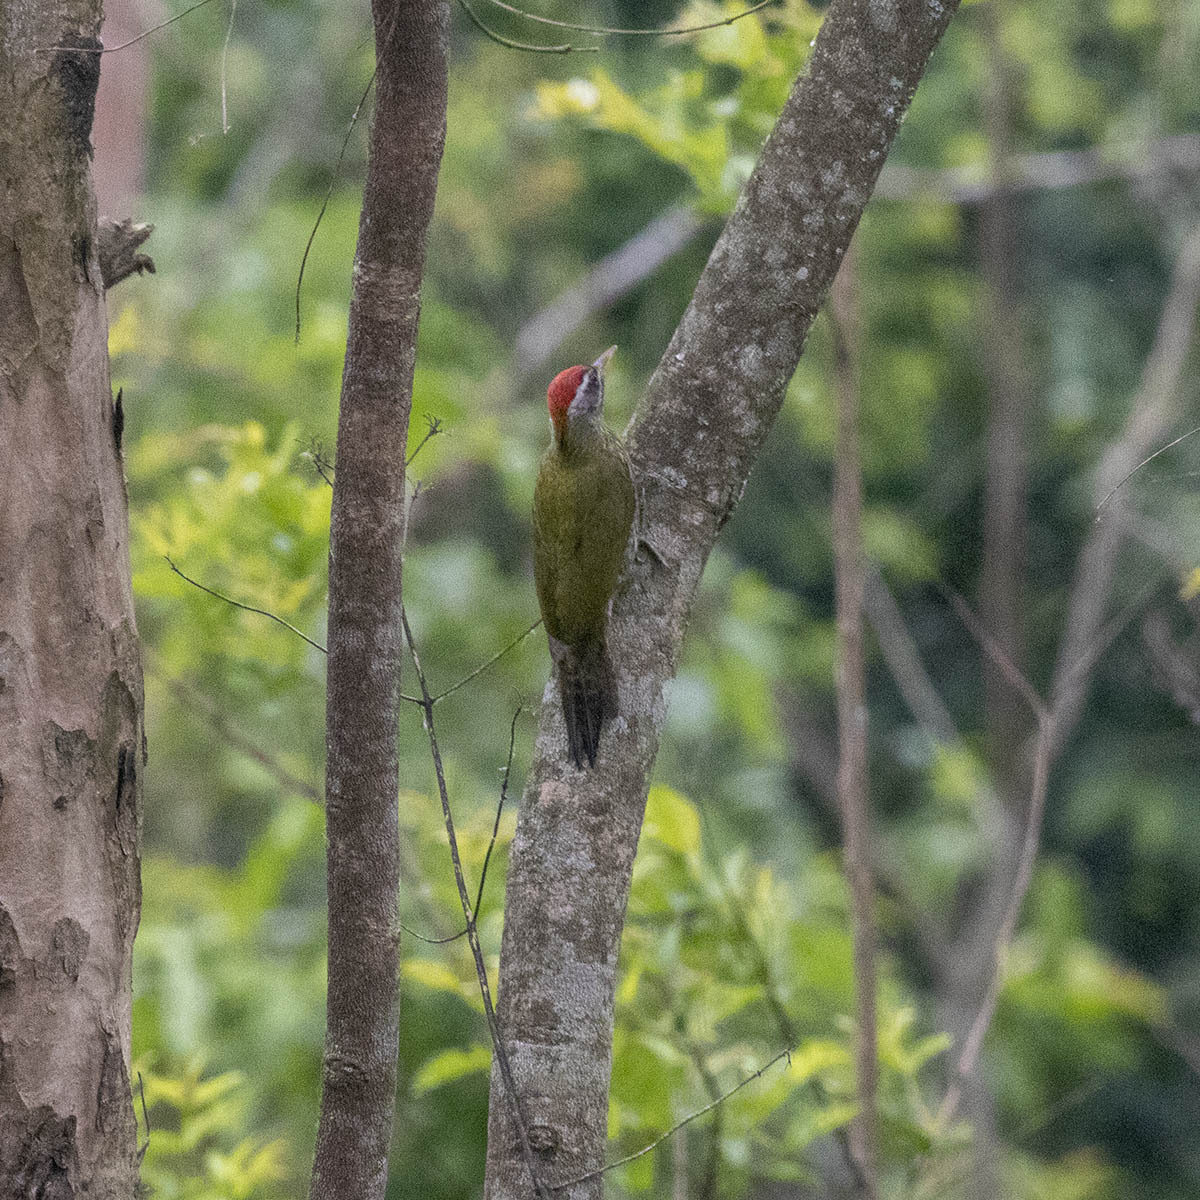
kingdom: Animalia
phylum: Chordata
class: Aves
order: Piciformes
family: Picidae
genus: Picus
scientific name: Picus squamatus
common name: Scaly-bellied woodpecker
